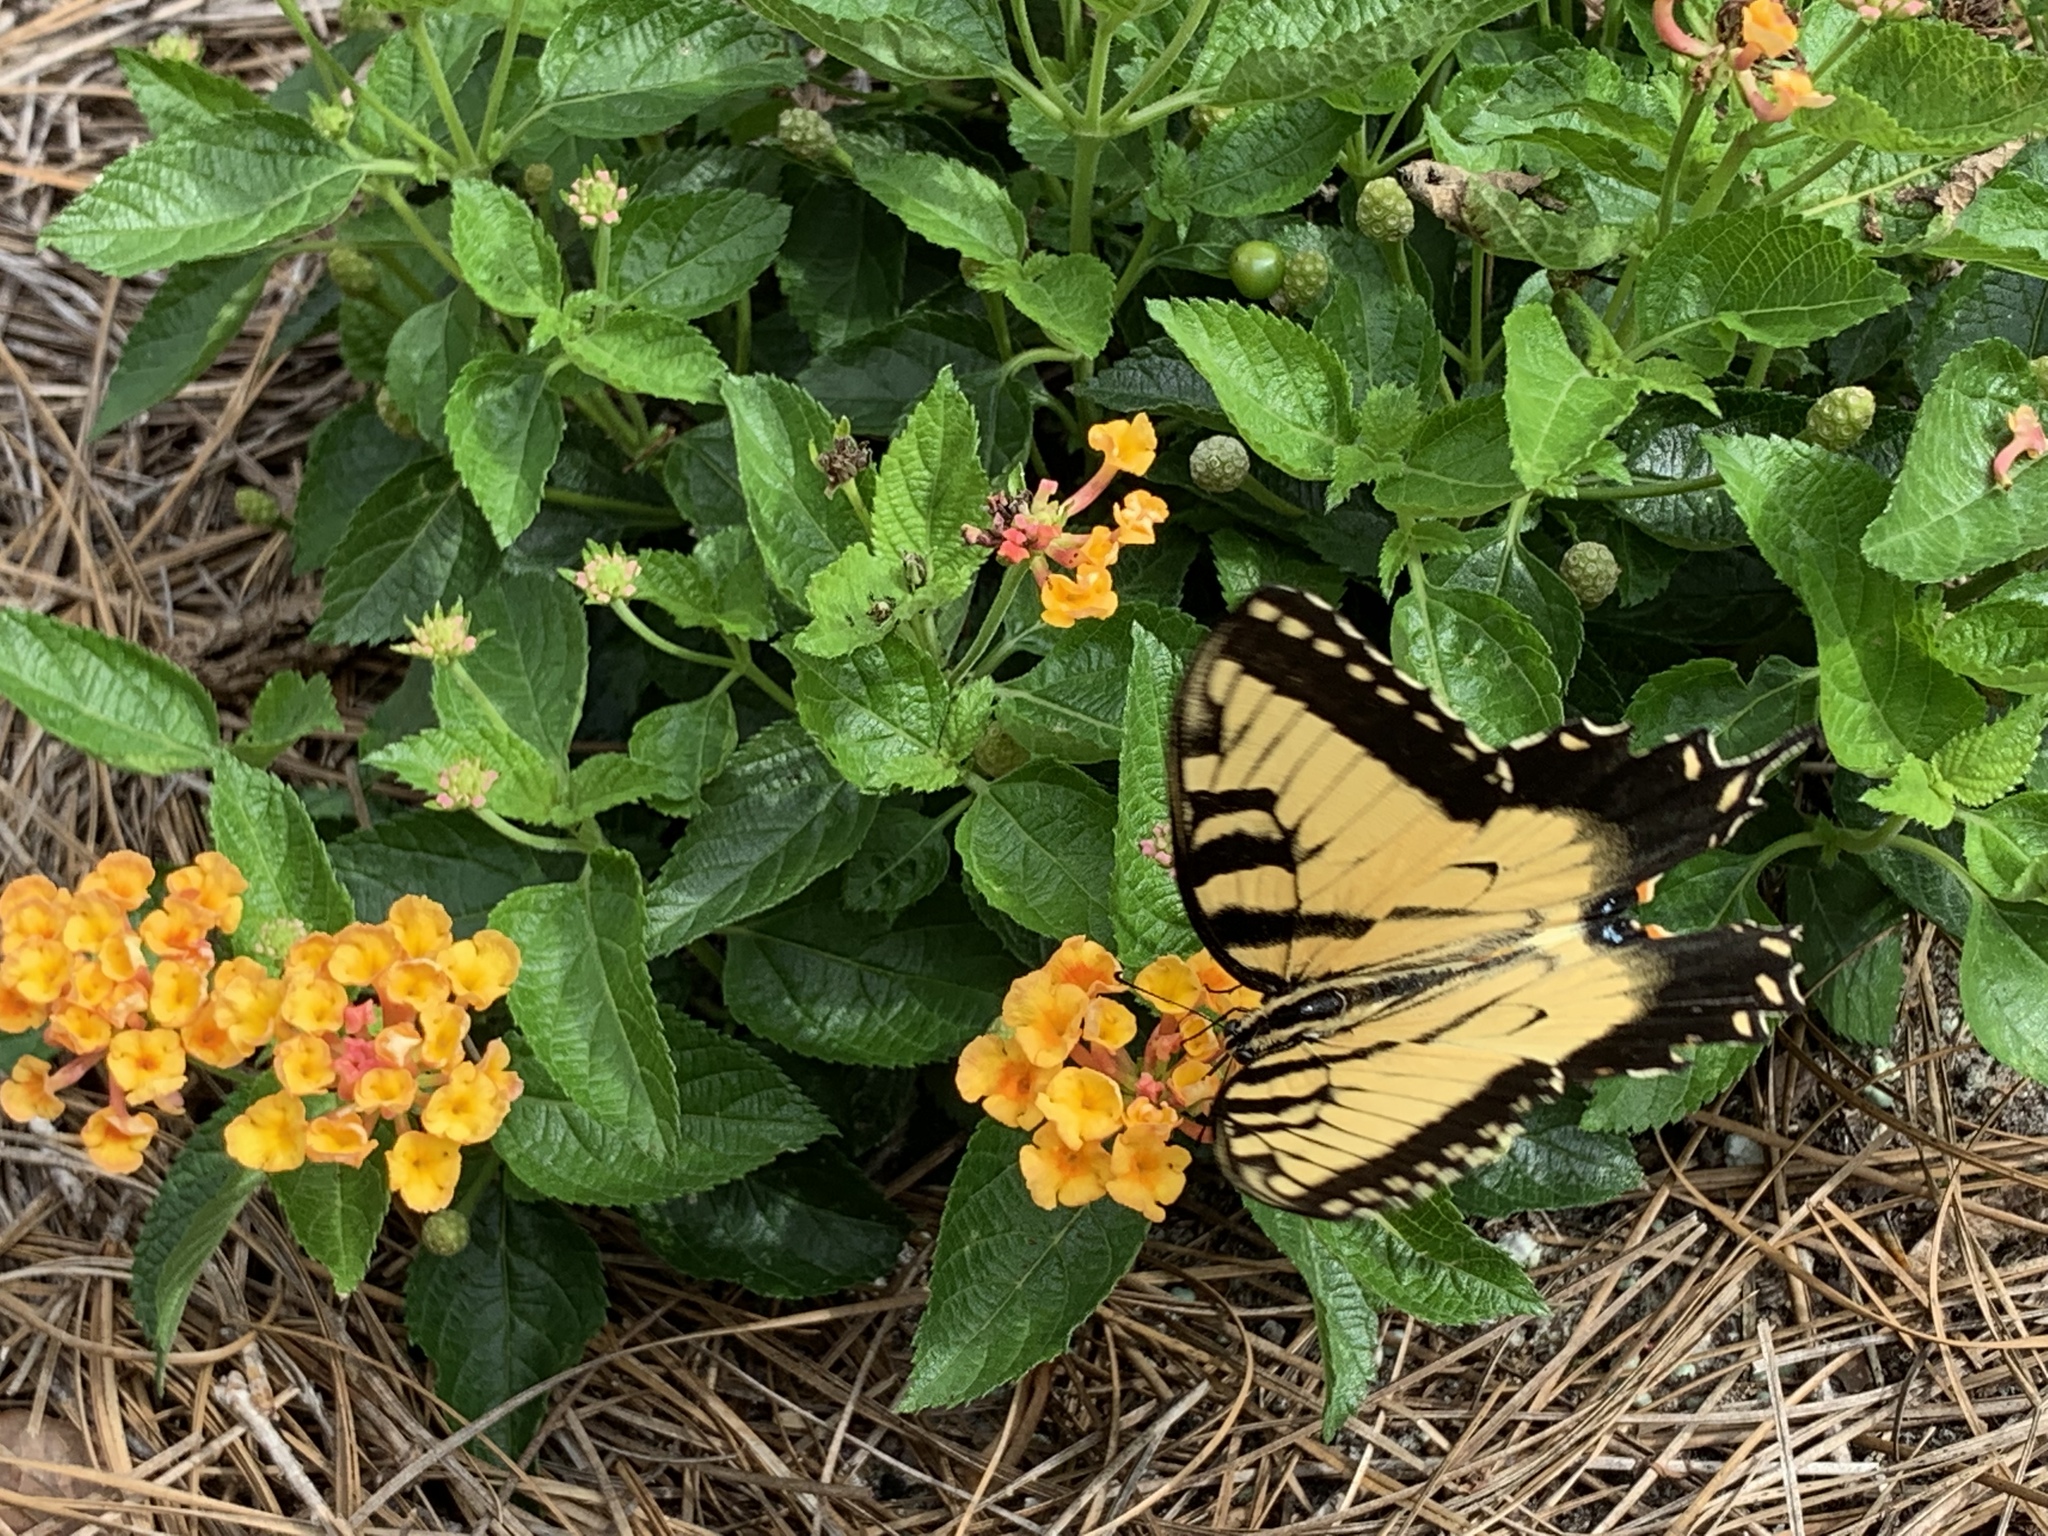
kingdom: Animalia
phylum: Arthropoda
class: Insecta
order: Lepidoptera
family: Papilionidae
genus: Papilio
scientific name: Papilio glaucus
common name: Tiger swallowtail
